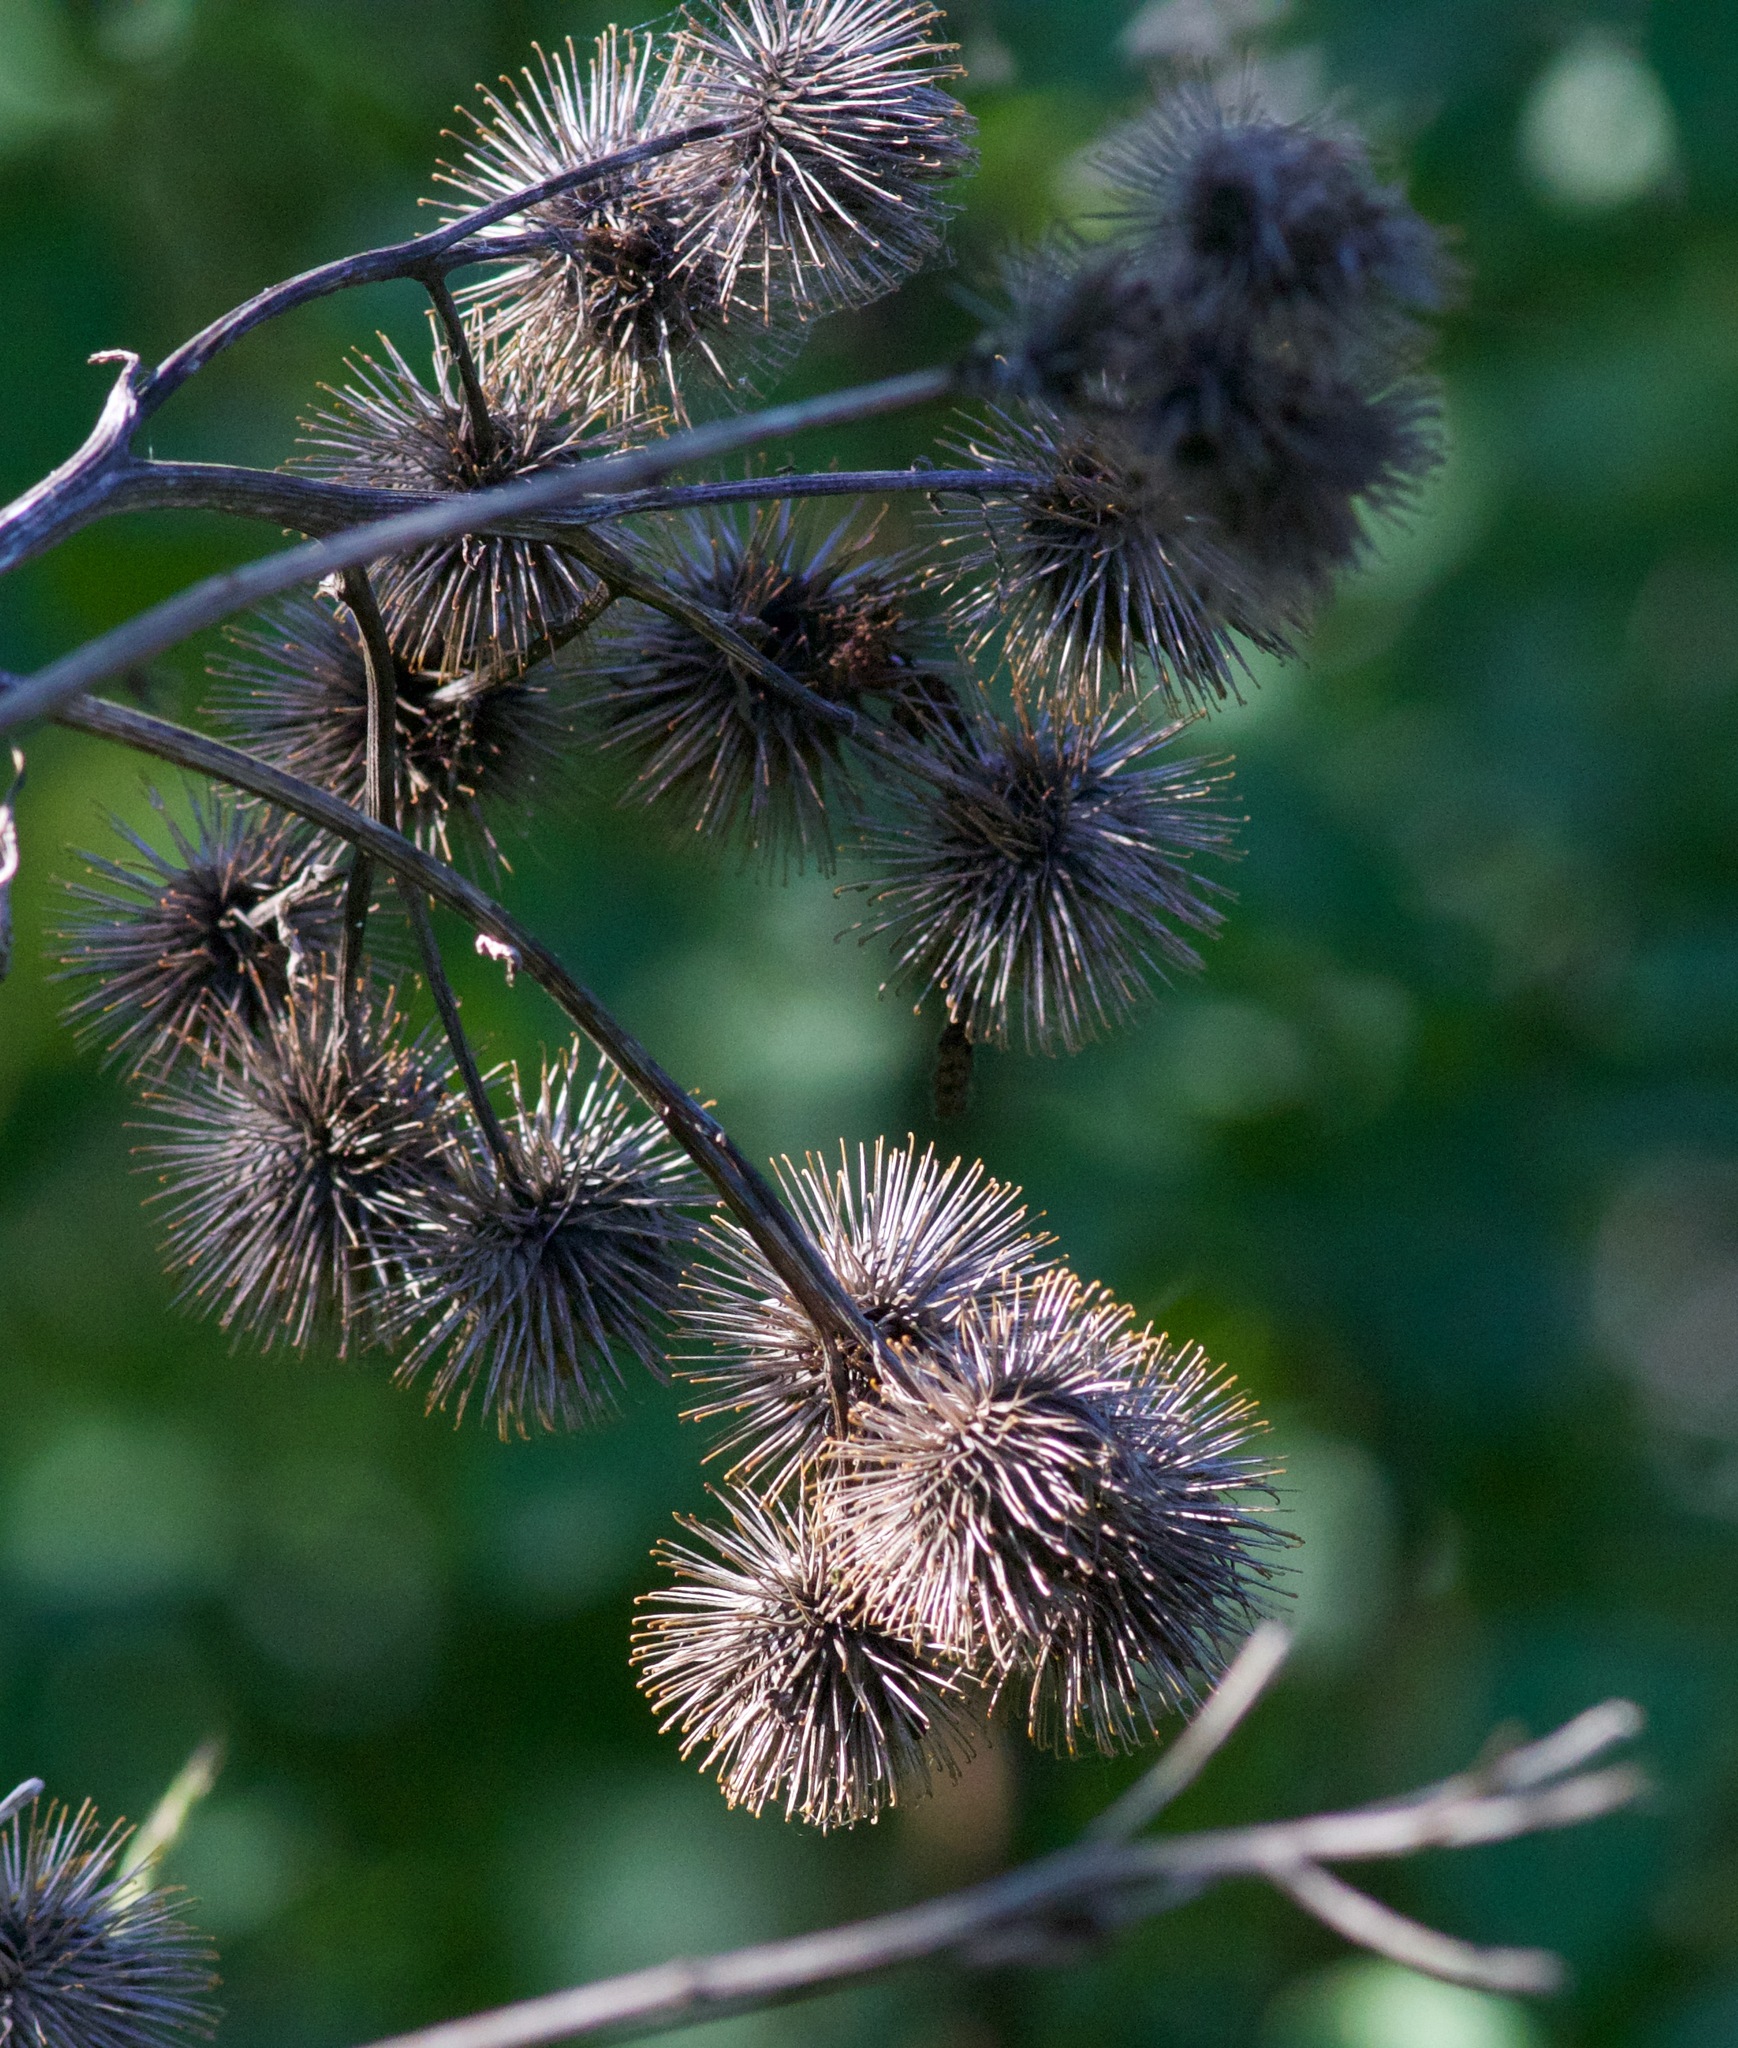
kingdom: Plantae
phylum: Tracheophyta
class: Magnoliopsida
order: Asterales
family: Asteraceae
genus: Arctium
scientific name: Arctium lappa
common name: Greater burdock
